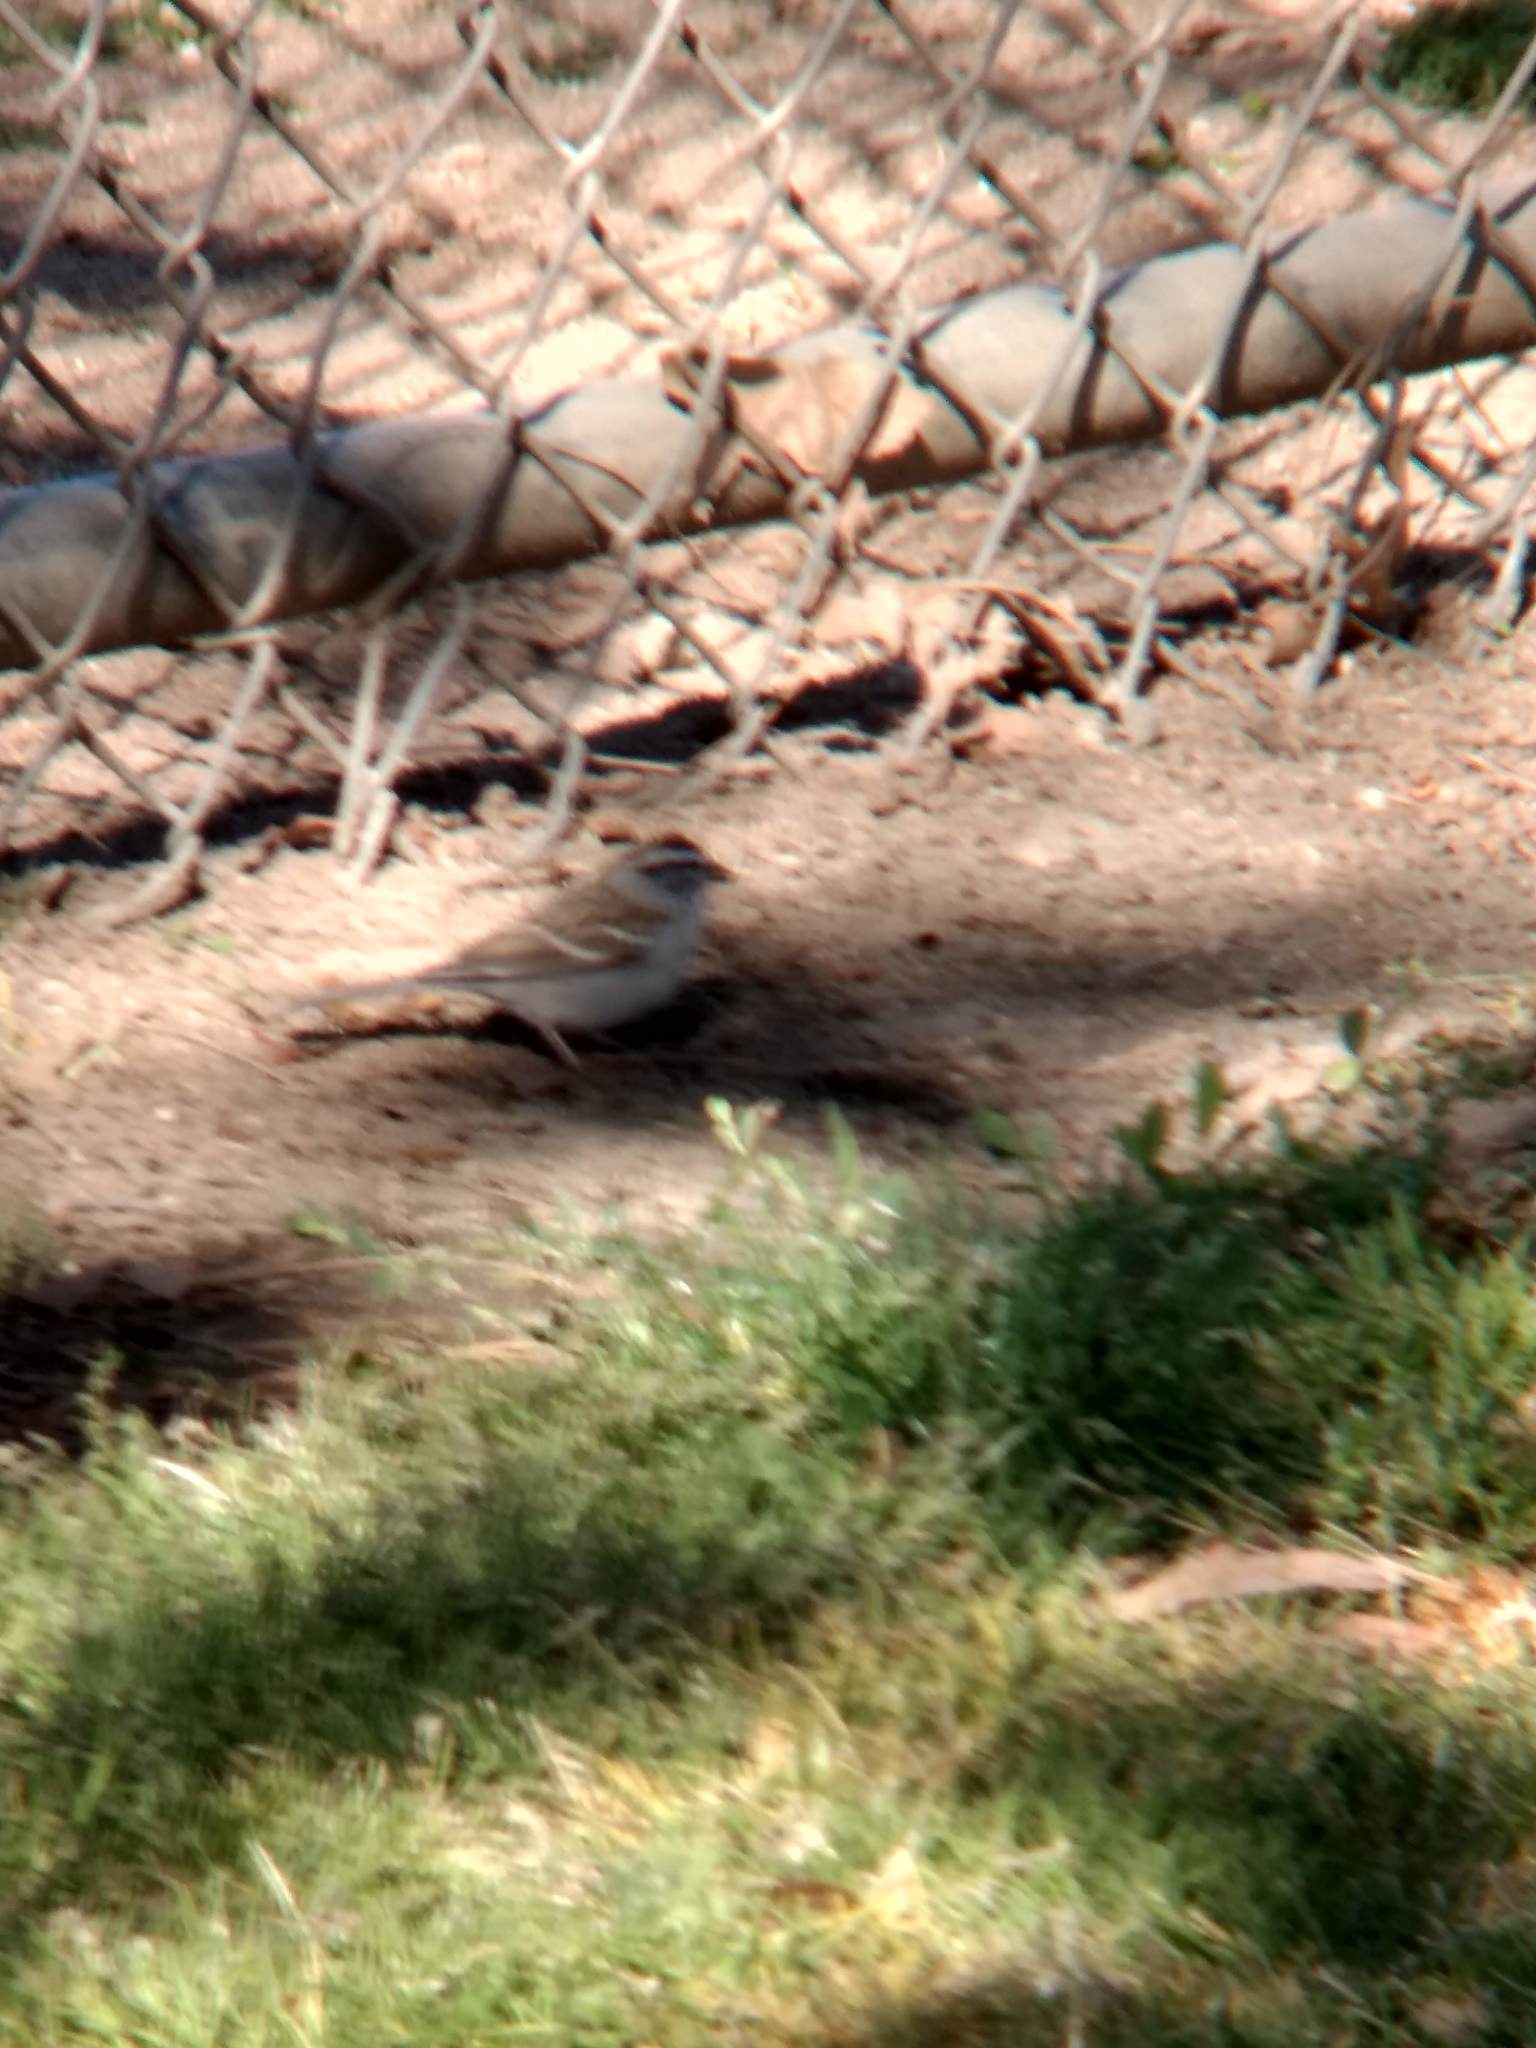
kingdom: Animalia
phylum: Chordata
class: Aves
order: Passeriformes
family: Passerellidae
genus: Spizella
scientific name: Spizella passerina
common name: Chipping sparrow
